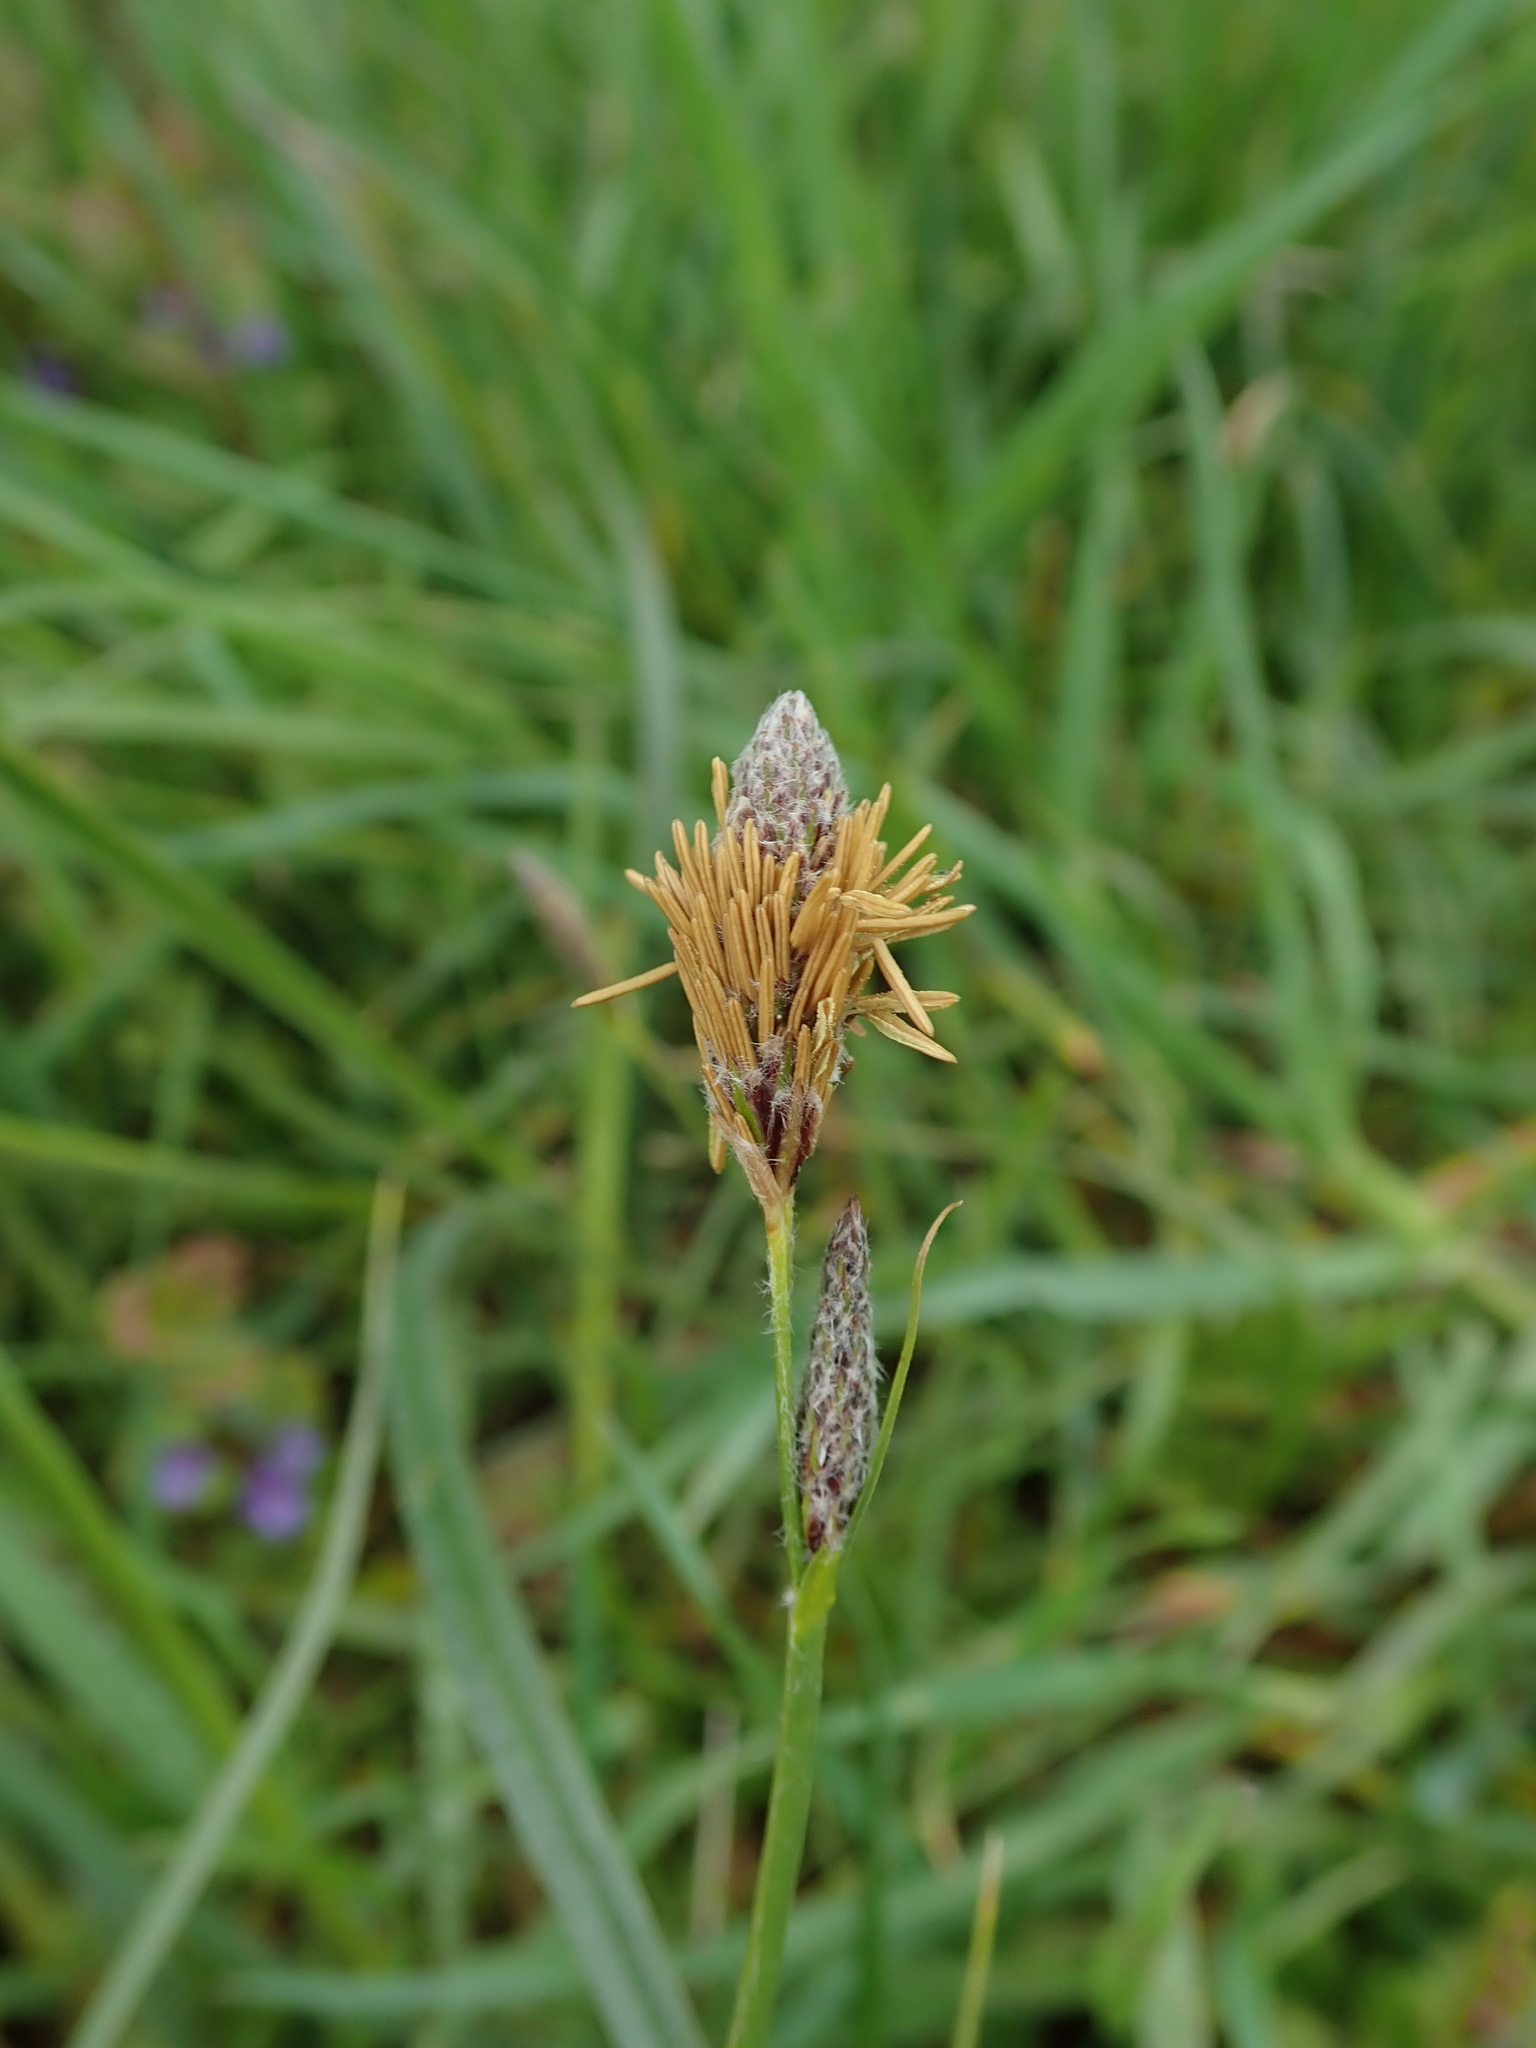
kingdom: Plantae
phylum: Tracheophyta
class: Liliopsida
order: Poales
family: Cyperaceae
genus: Carex
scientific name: Carex hirta
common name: Hairy sedge
